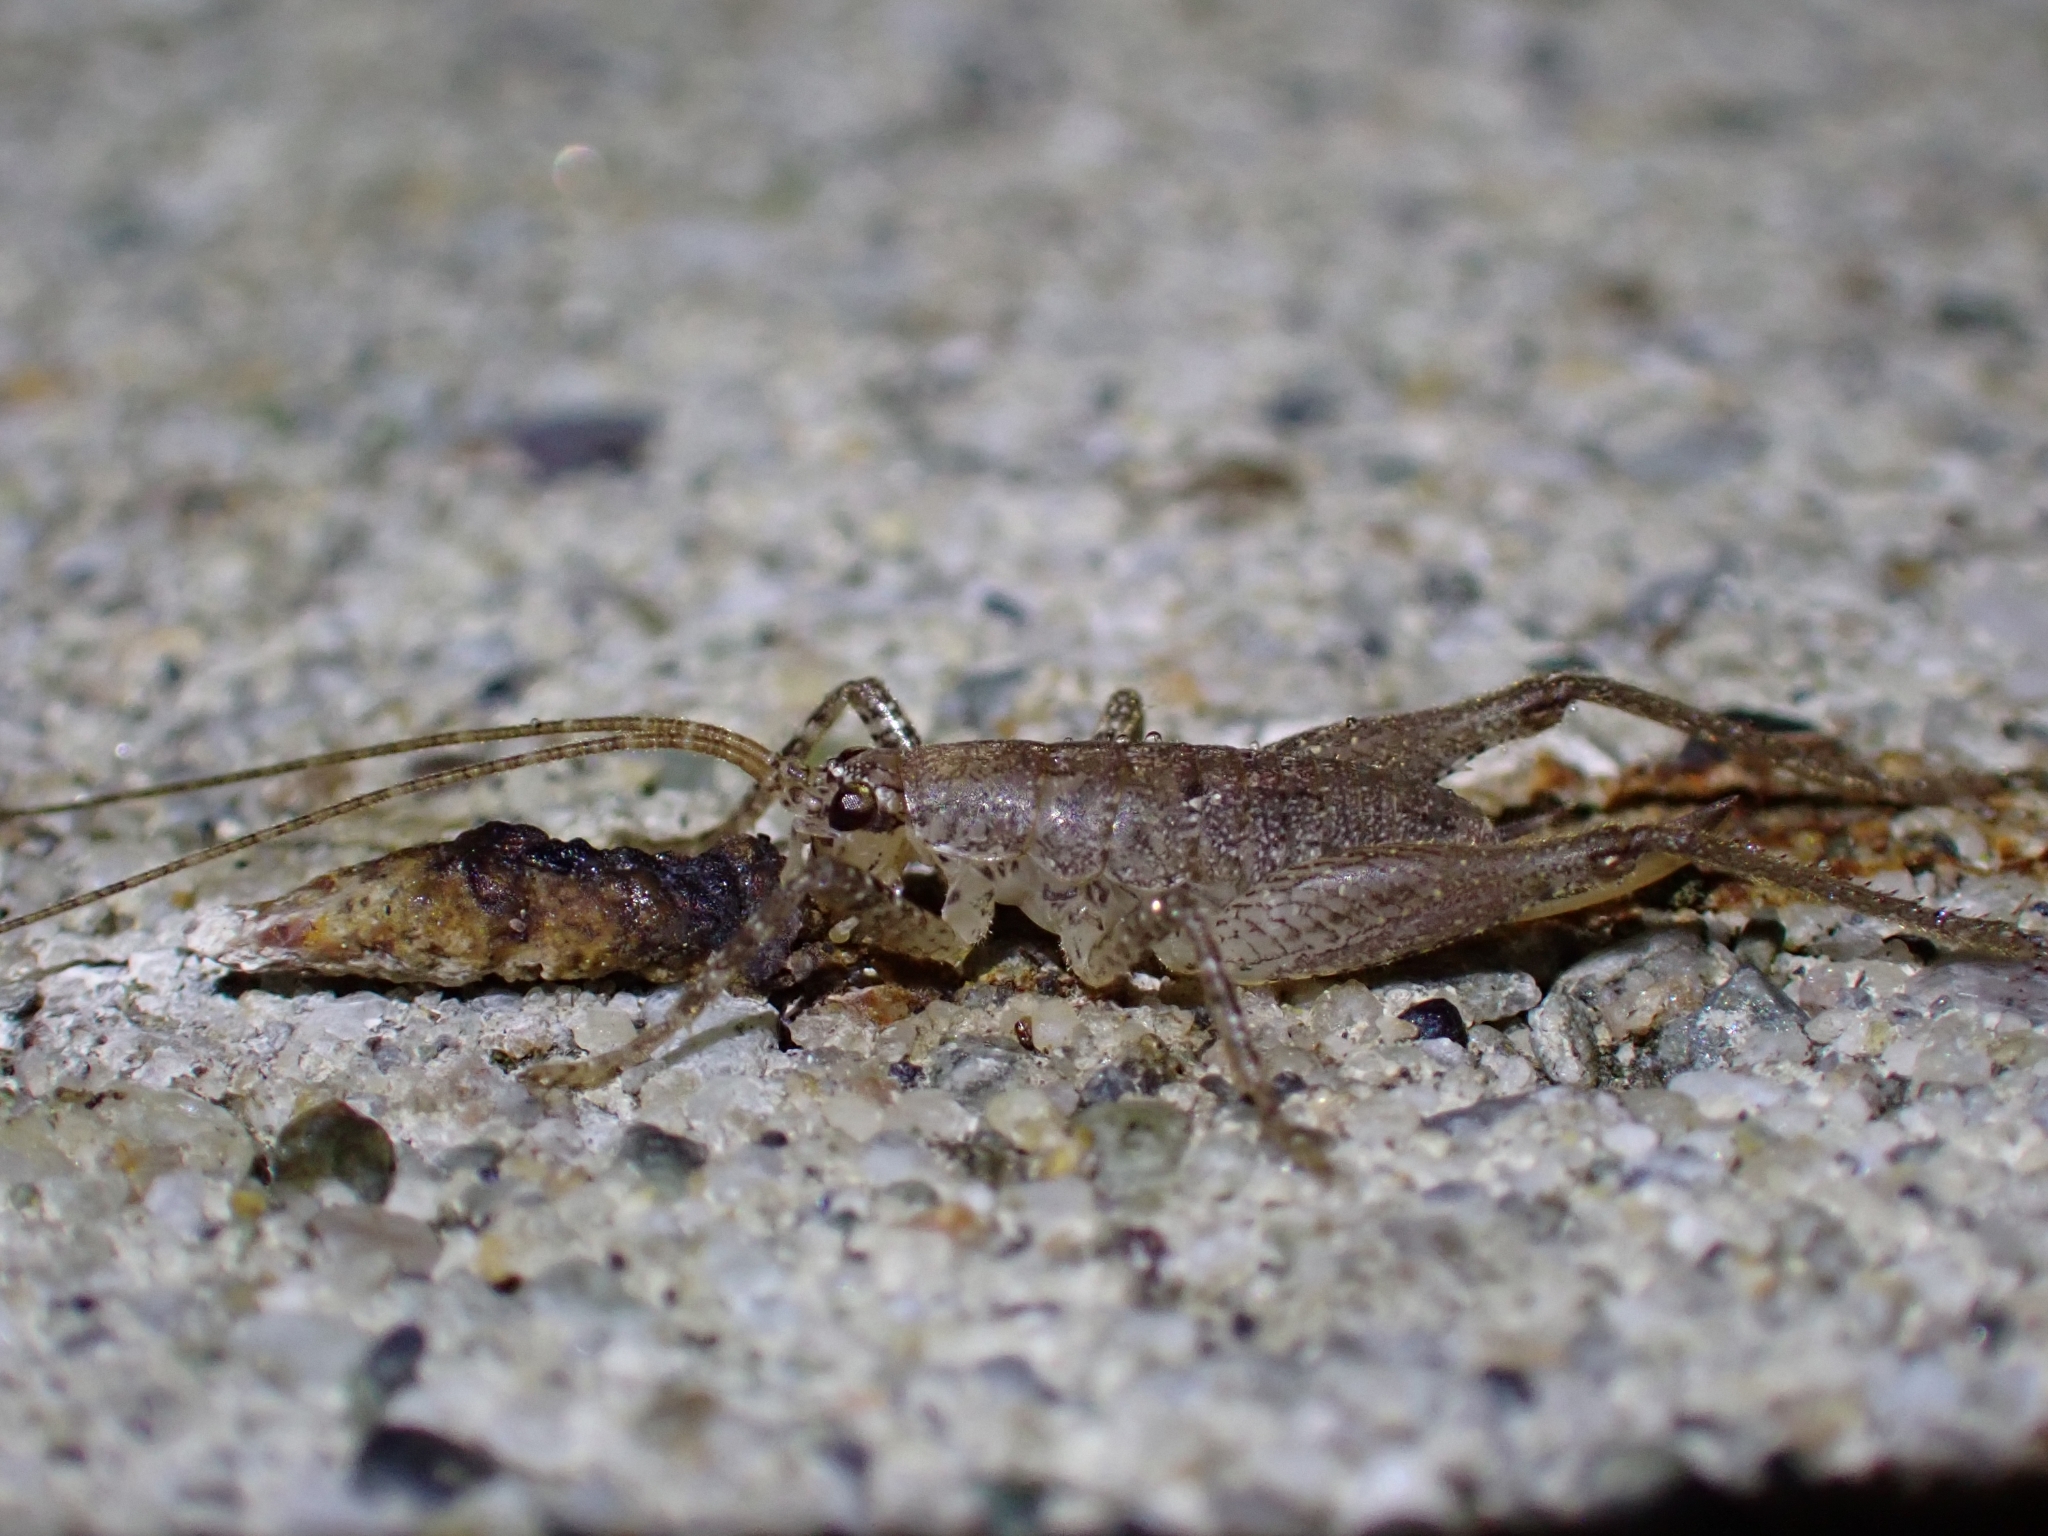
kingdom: Animalia
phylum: Arthropoda
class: Insecta
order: Orthoptera
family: Rhaphidophoridae
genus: Isoplectron
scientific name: Isoplectron armatum
